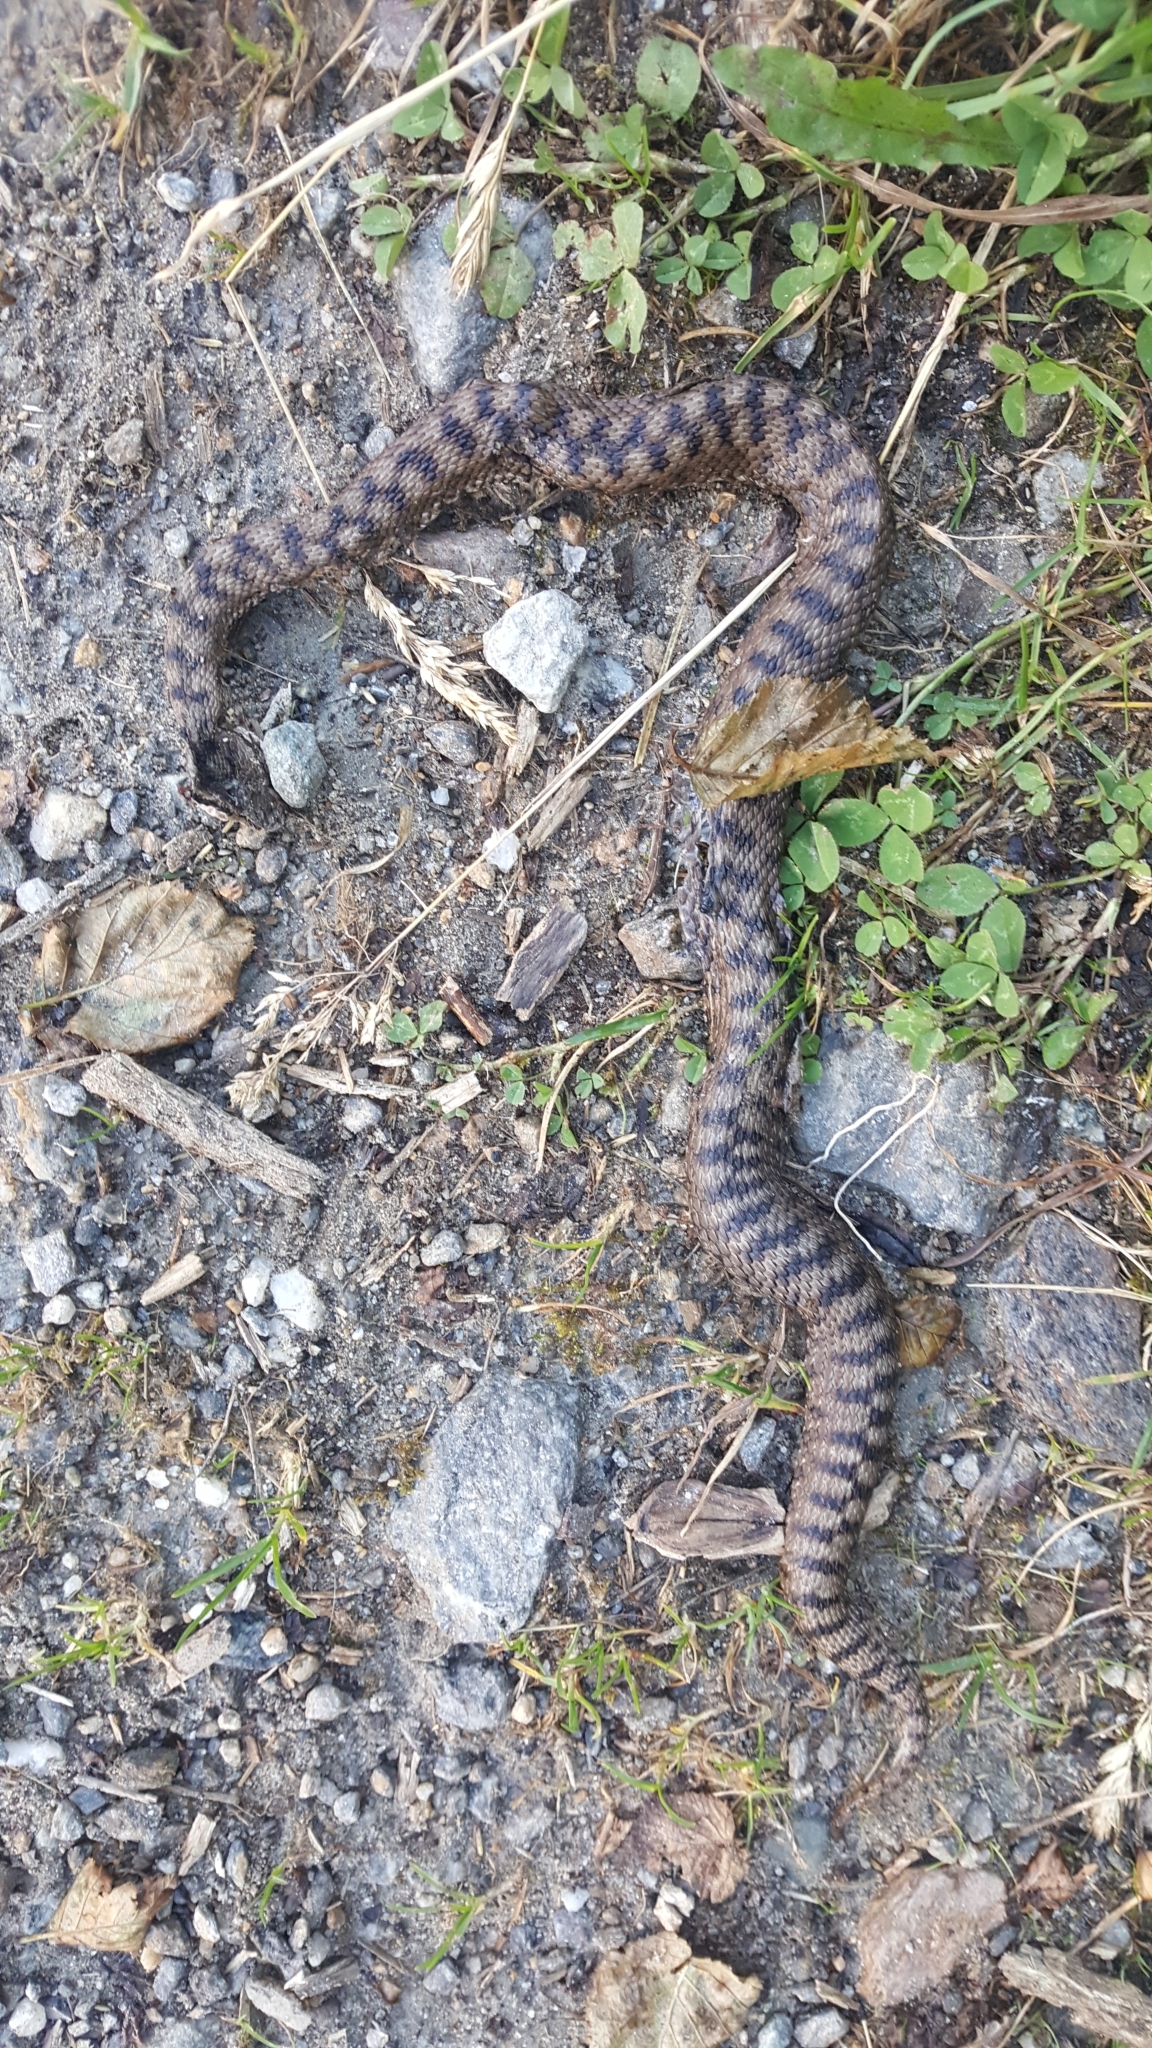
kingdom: Animalia
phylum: Chordata
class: Squamata
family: Viperidae
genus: Vipera
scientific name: Vipera aspis
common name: Asp viper
